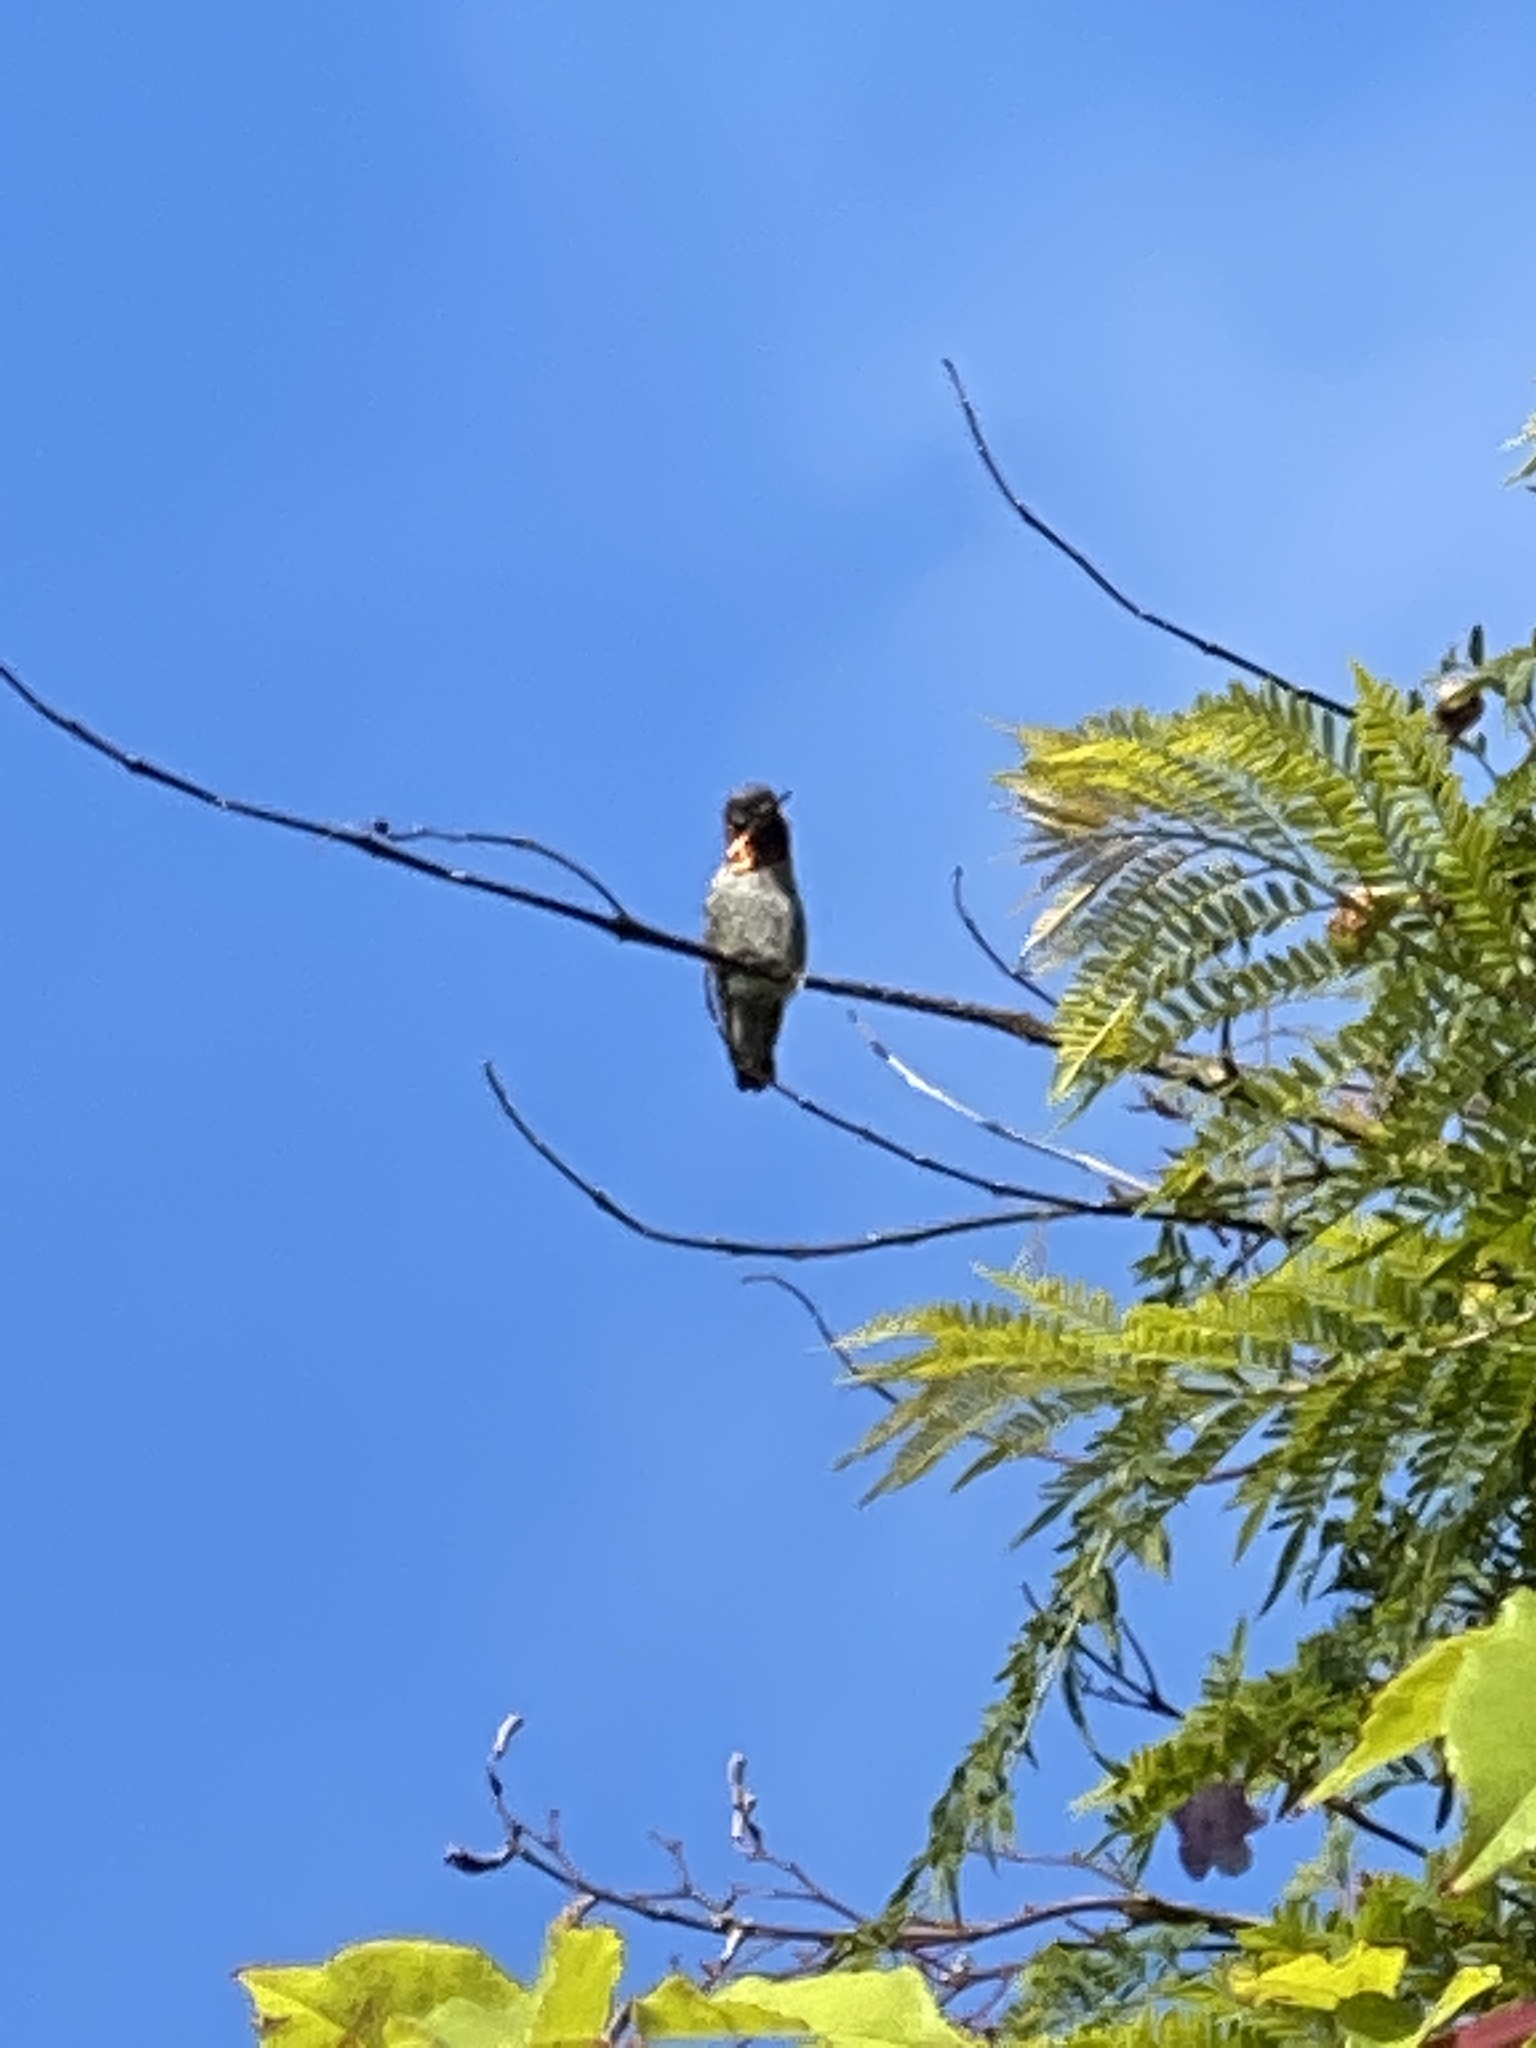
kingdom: Animalia
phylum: Chordata
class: Aves
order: Apodiformes
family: Trochilidae
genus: Calypte
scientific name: Calypte anna
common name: Anna's hummingbird
